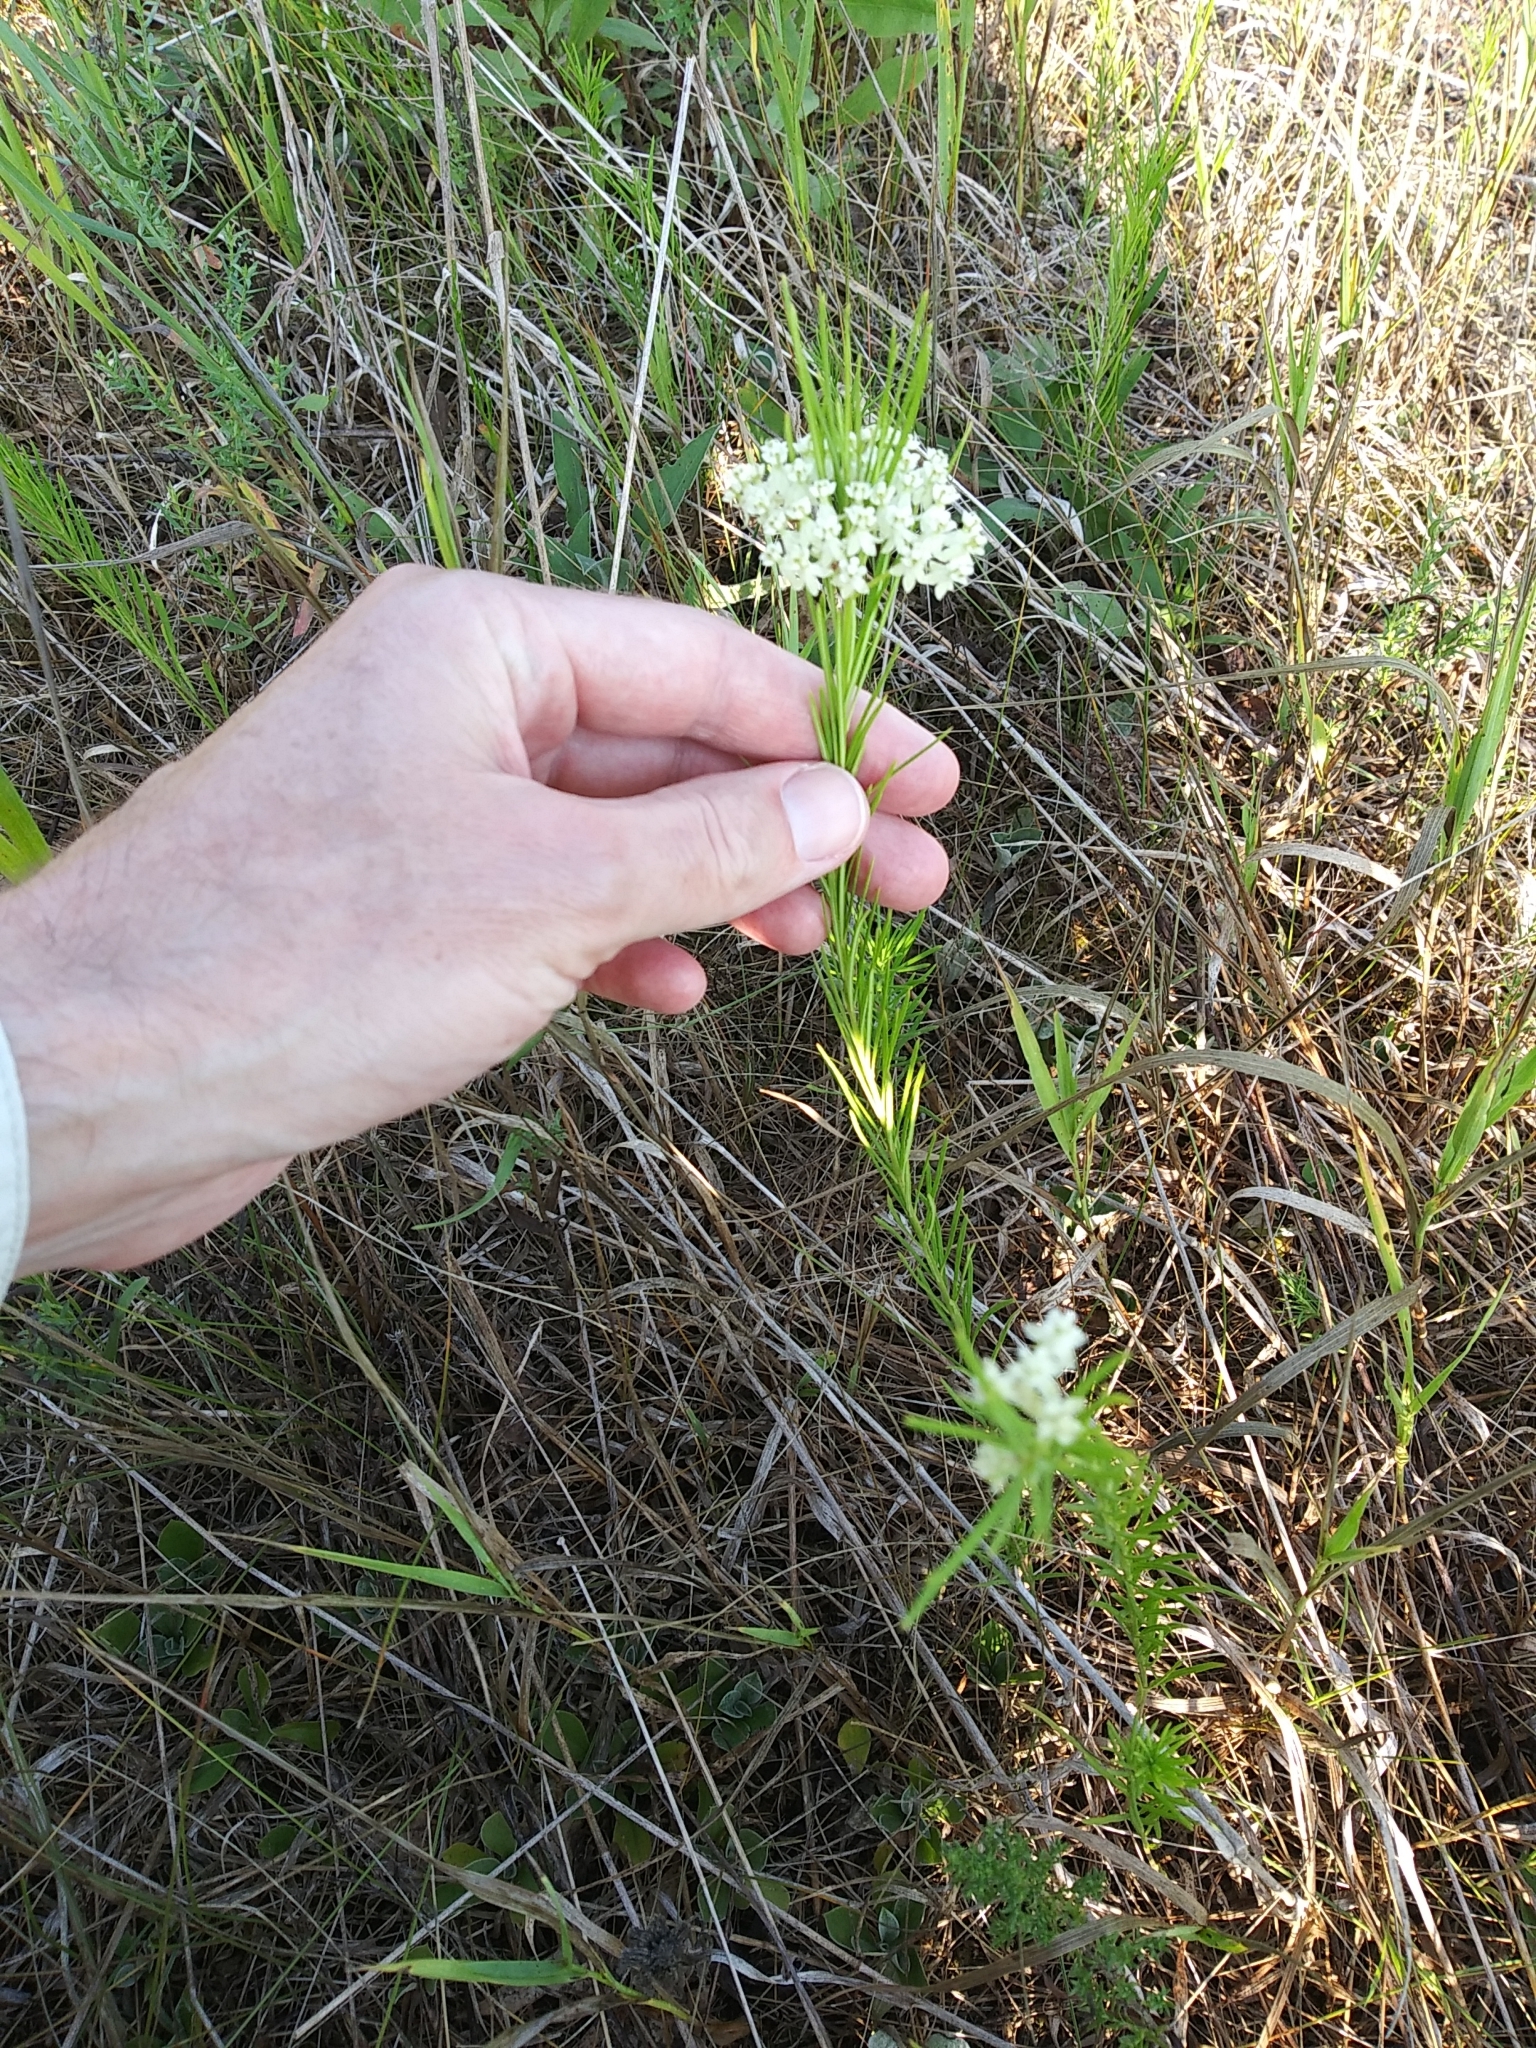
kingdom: Plantae
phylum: Tracheophyta
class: Magnoliopsida
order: Gentianales
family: Apocynaceae
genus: Asclepias
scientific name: Asclepias verticillata
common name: Eastern whorled milkweed
